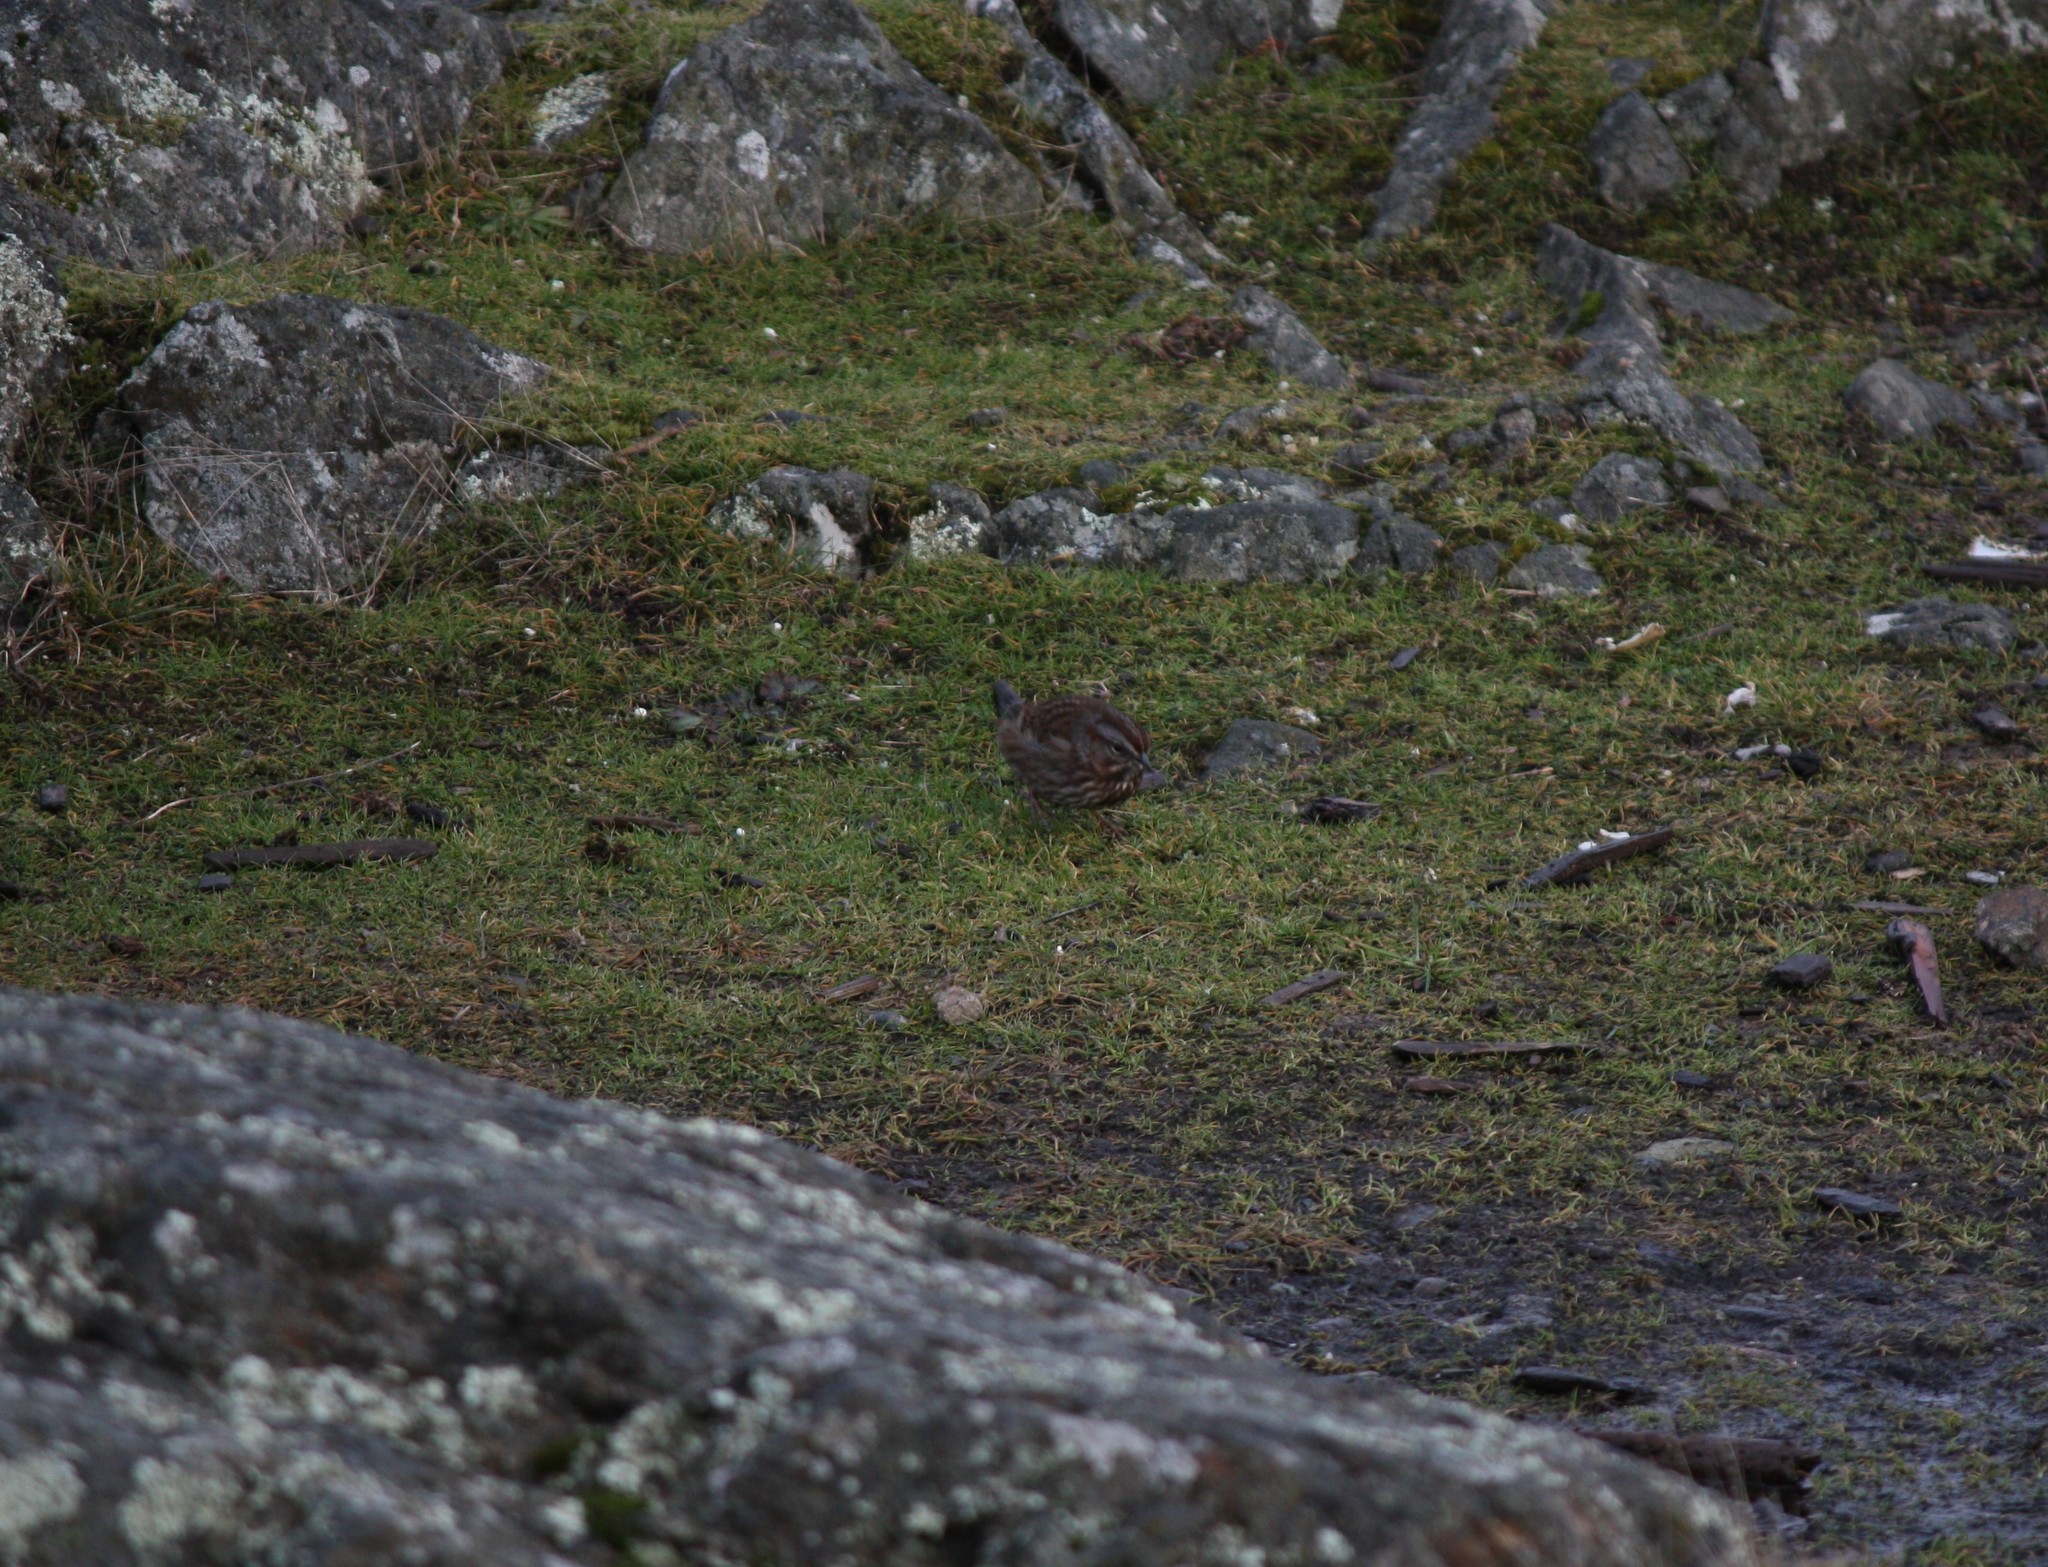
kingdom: Animalia
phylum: Chordata
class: Aves
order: Passeriformes
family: Passerellidae
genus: Melospiza
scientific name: Melospiza melodia
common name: Song sparrow
